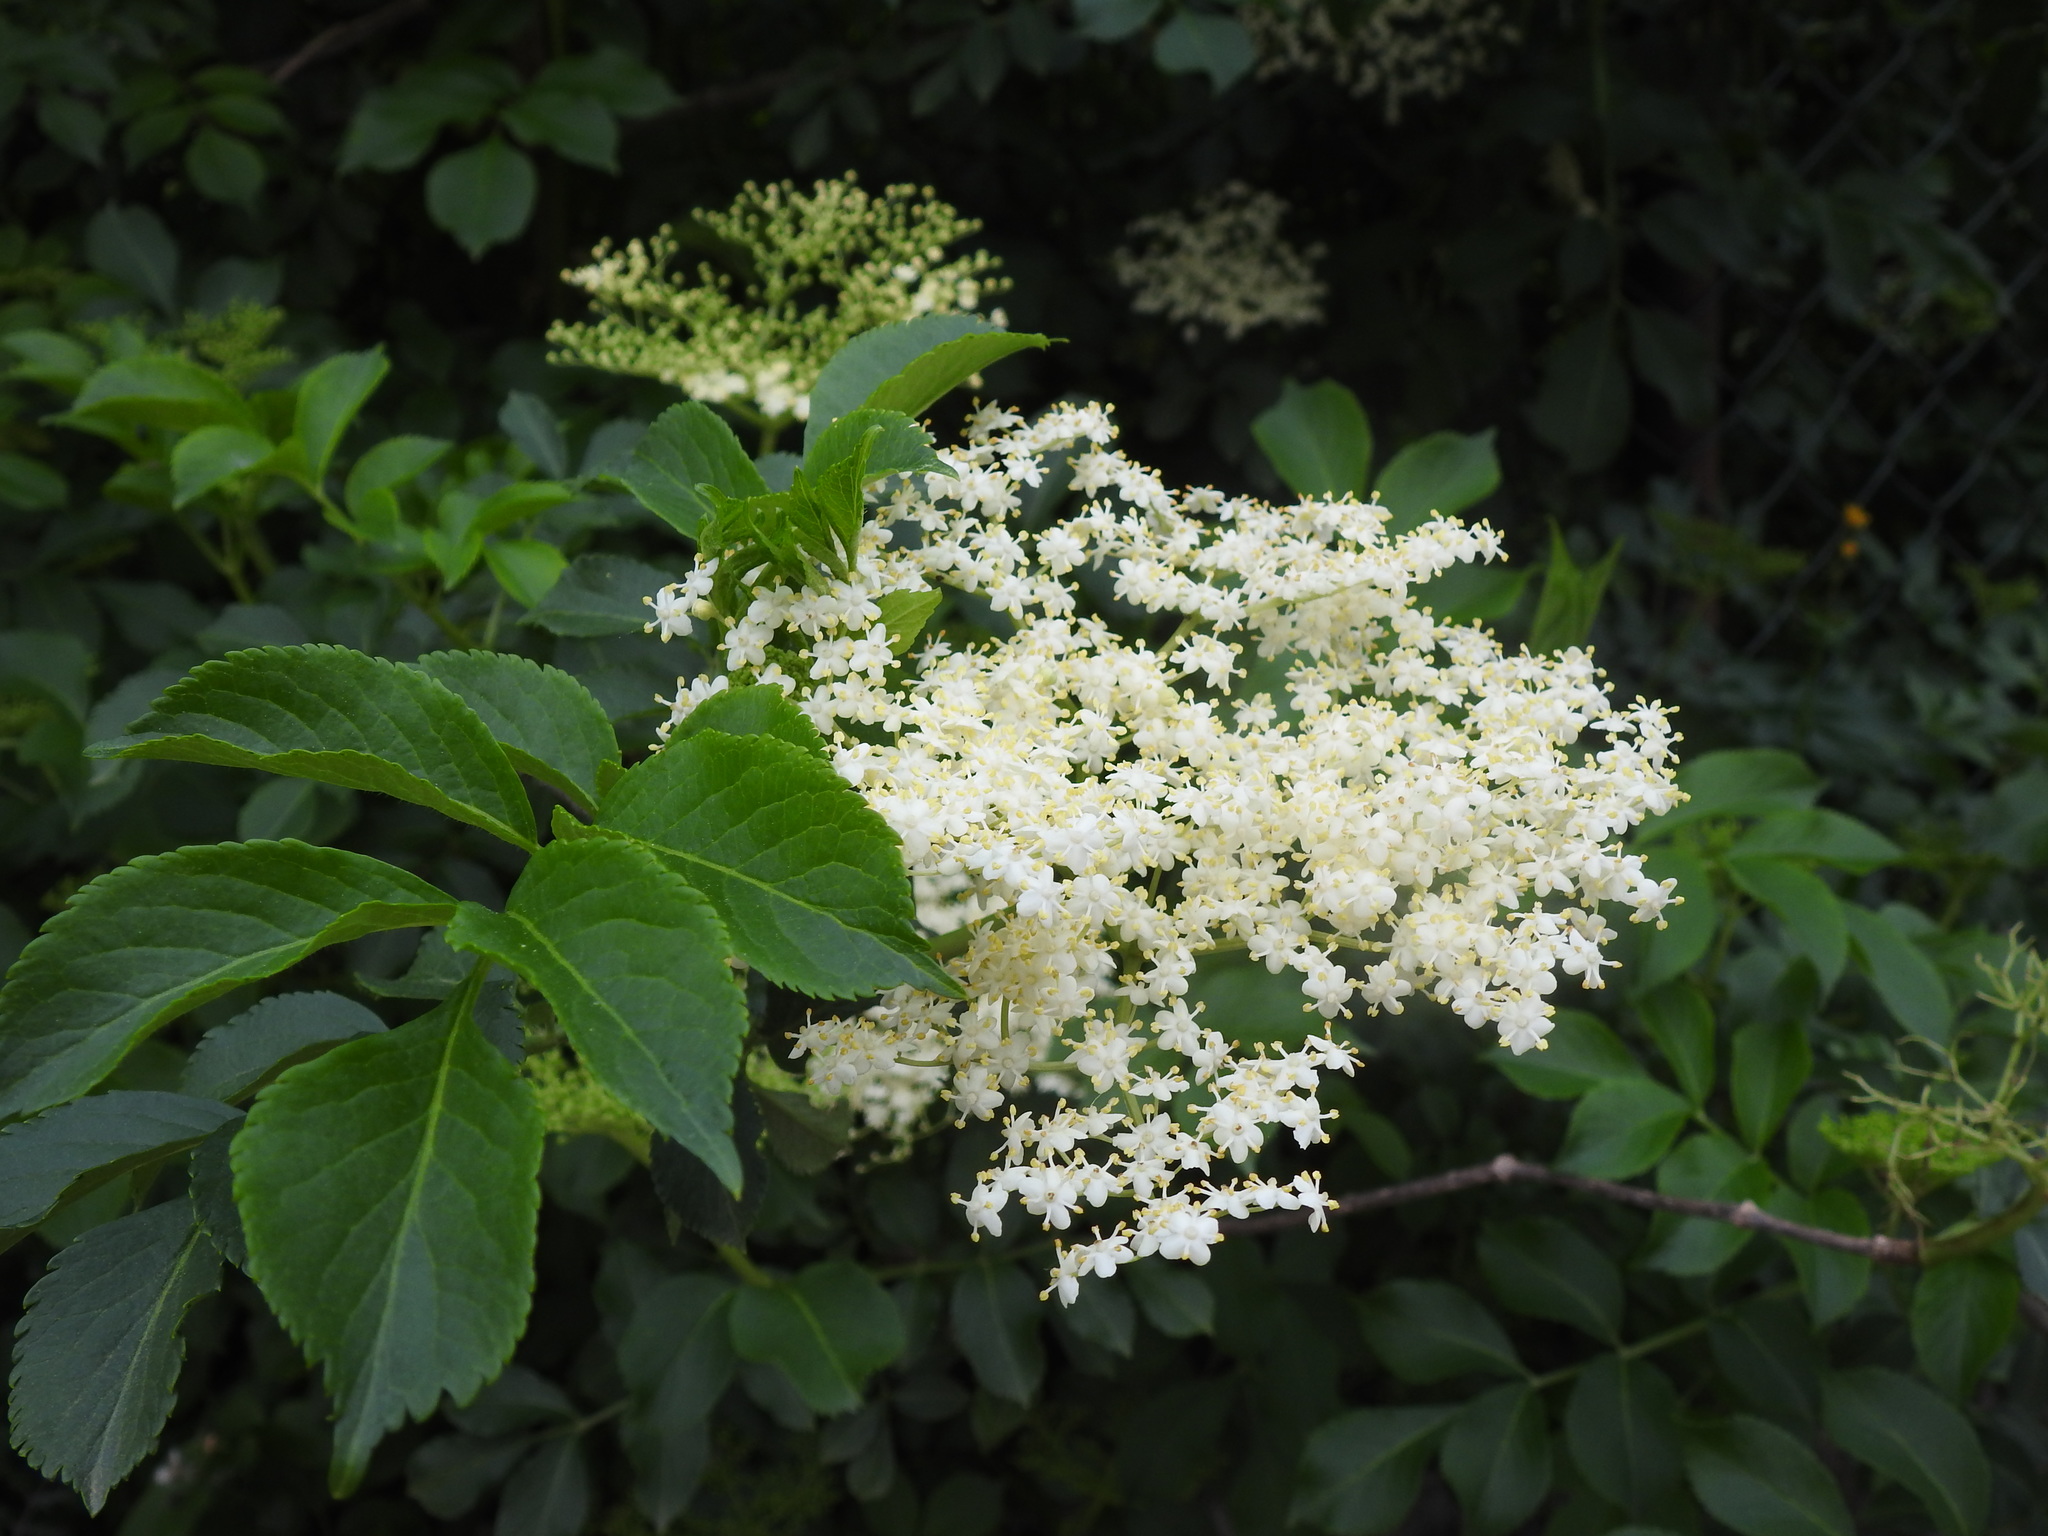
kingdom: Plantae
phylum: Tracheophyta
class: Magnoliopsida
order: Dipsacales
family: Viburnaceae
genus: Sambucus
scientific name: Sambucus nigra
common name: Elder
